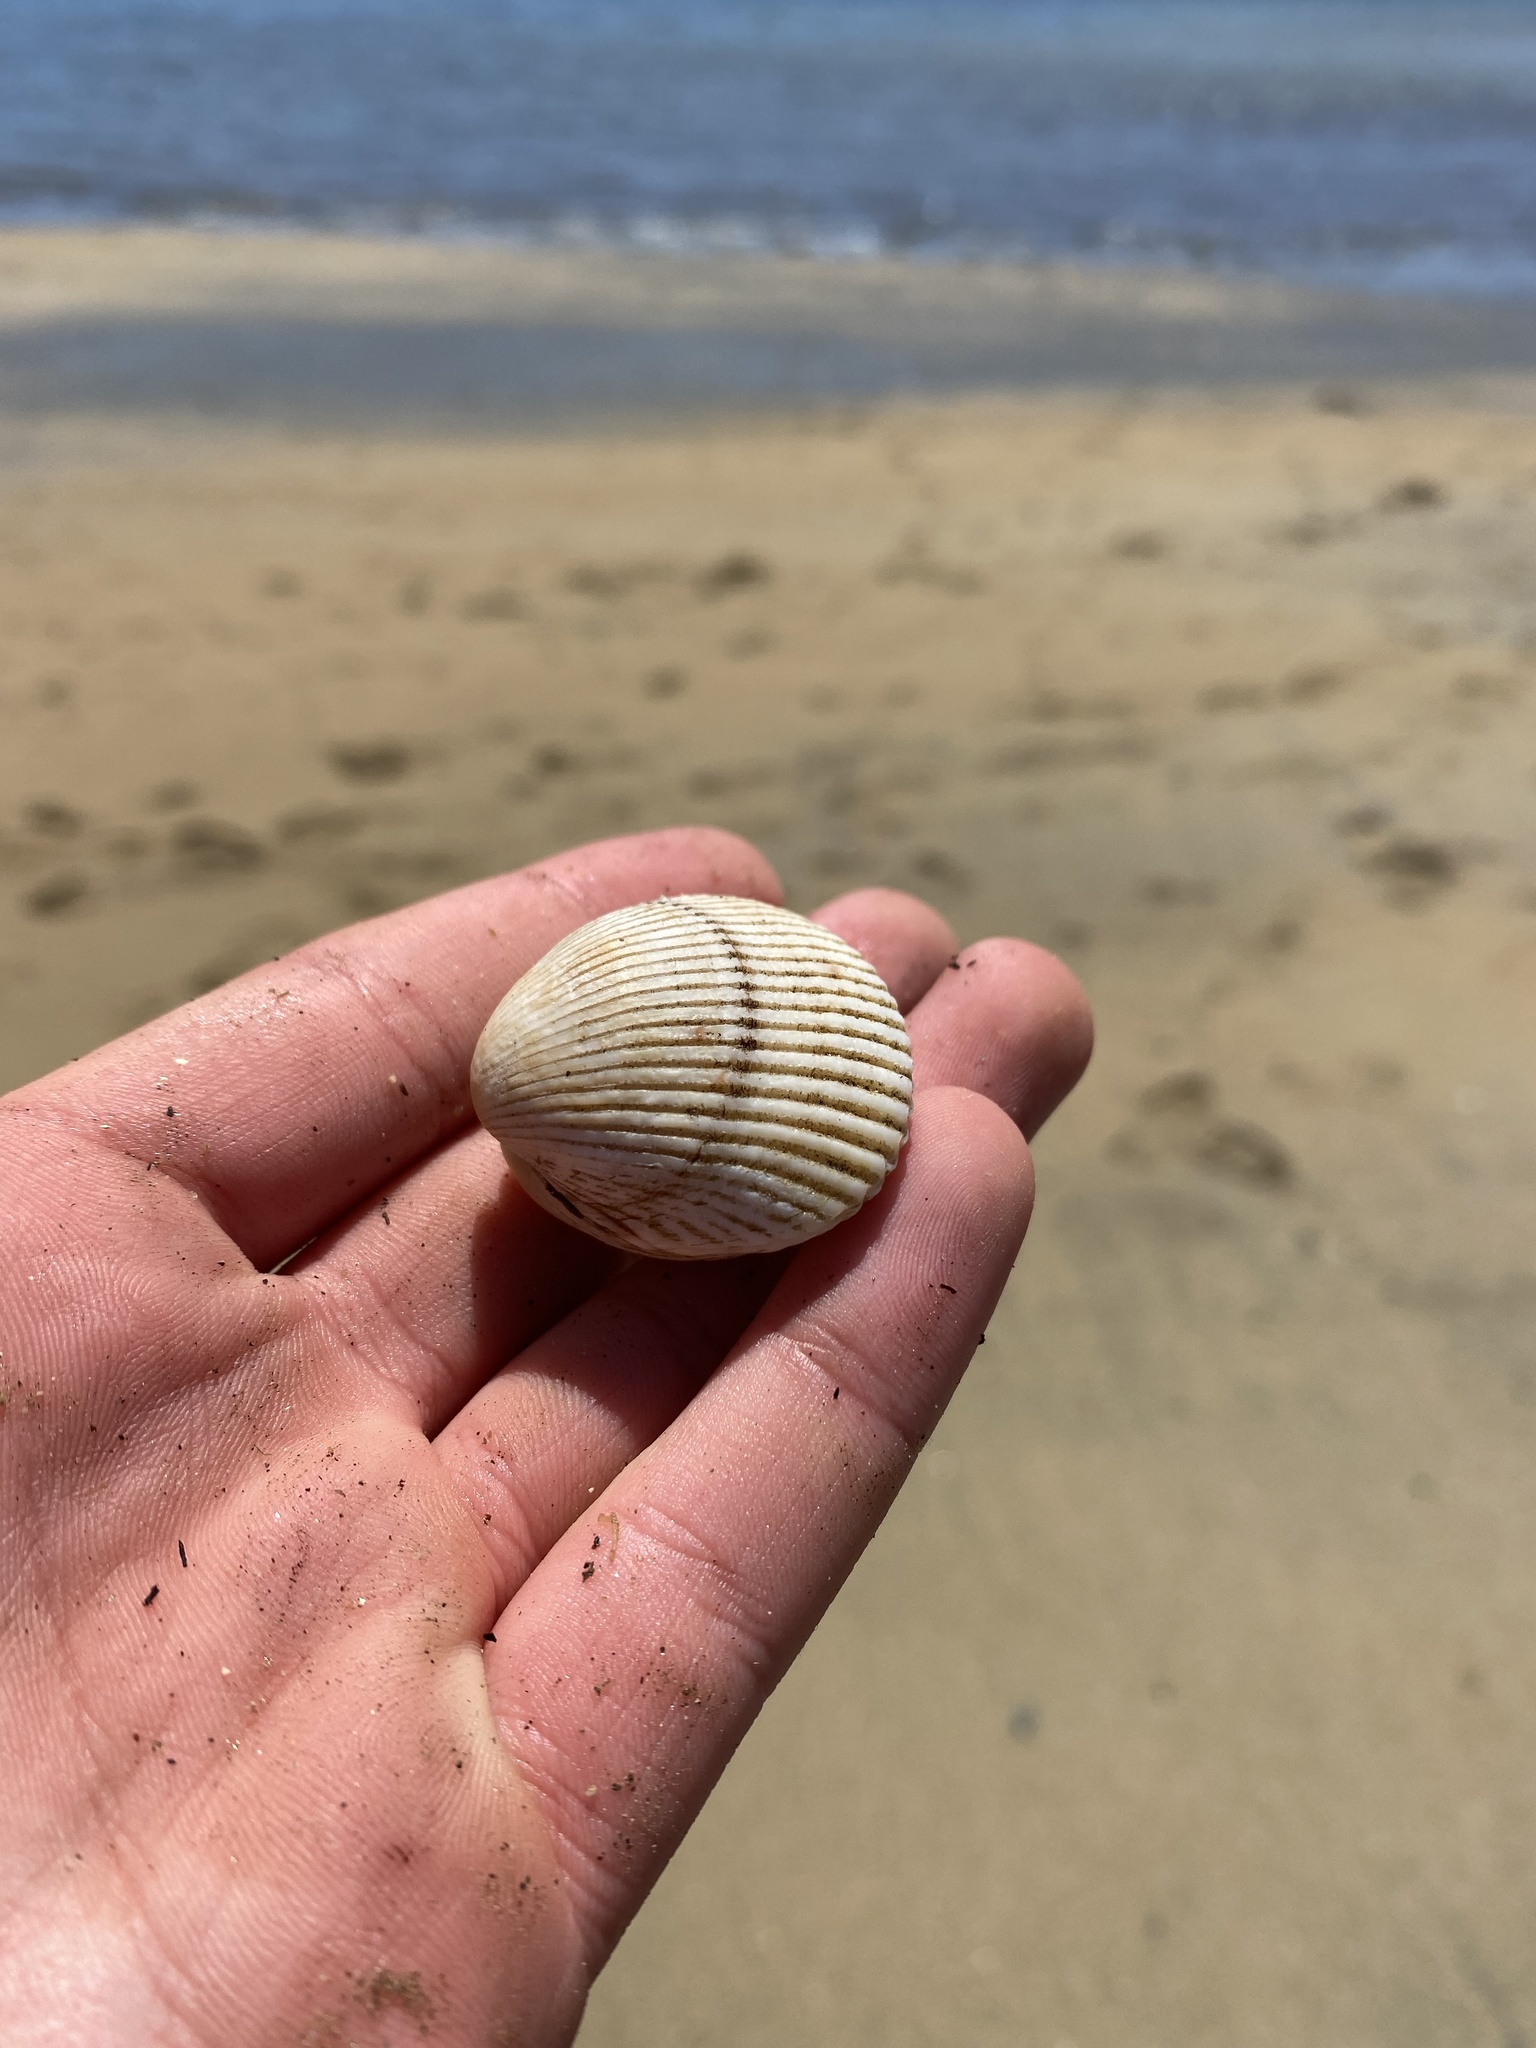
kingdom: Animalia
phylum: Mollusca
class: Bivalvia
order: Cardiida
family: Cardiidae
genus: Clinocardium
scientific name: Clinocardium nuttallii
